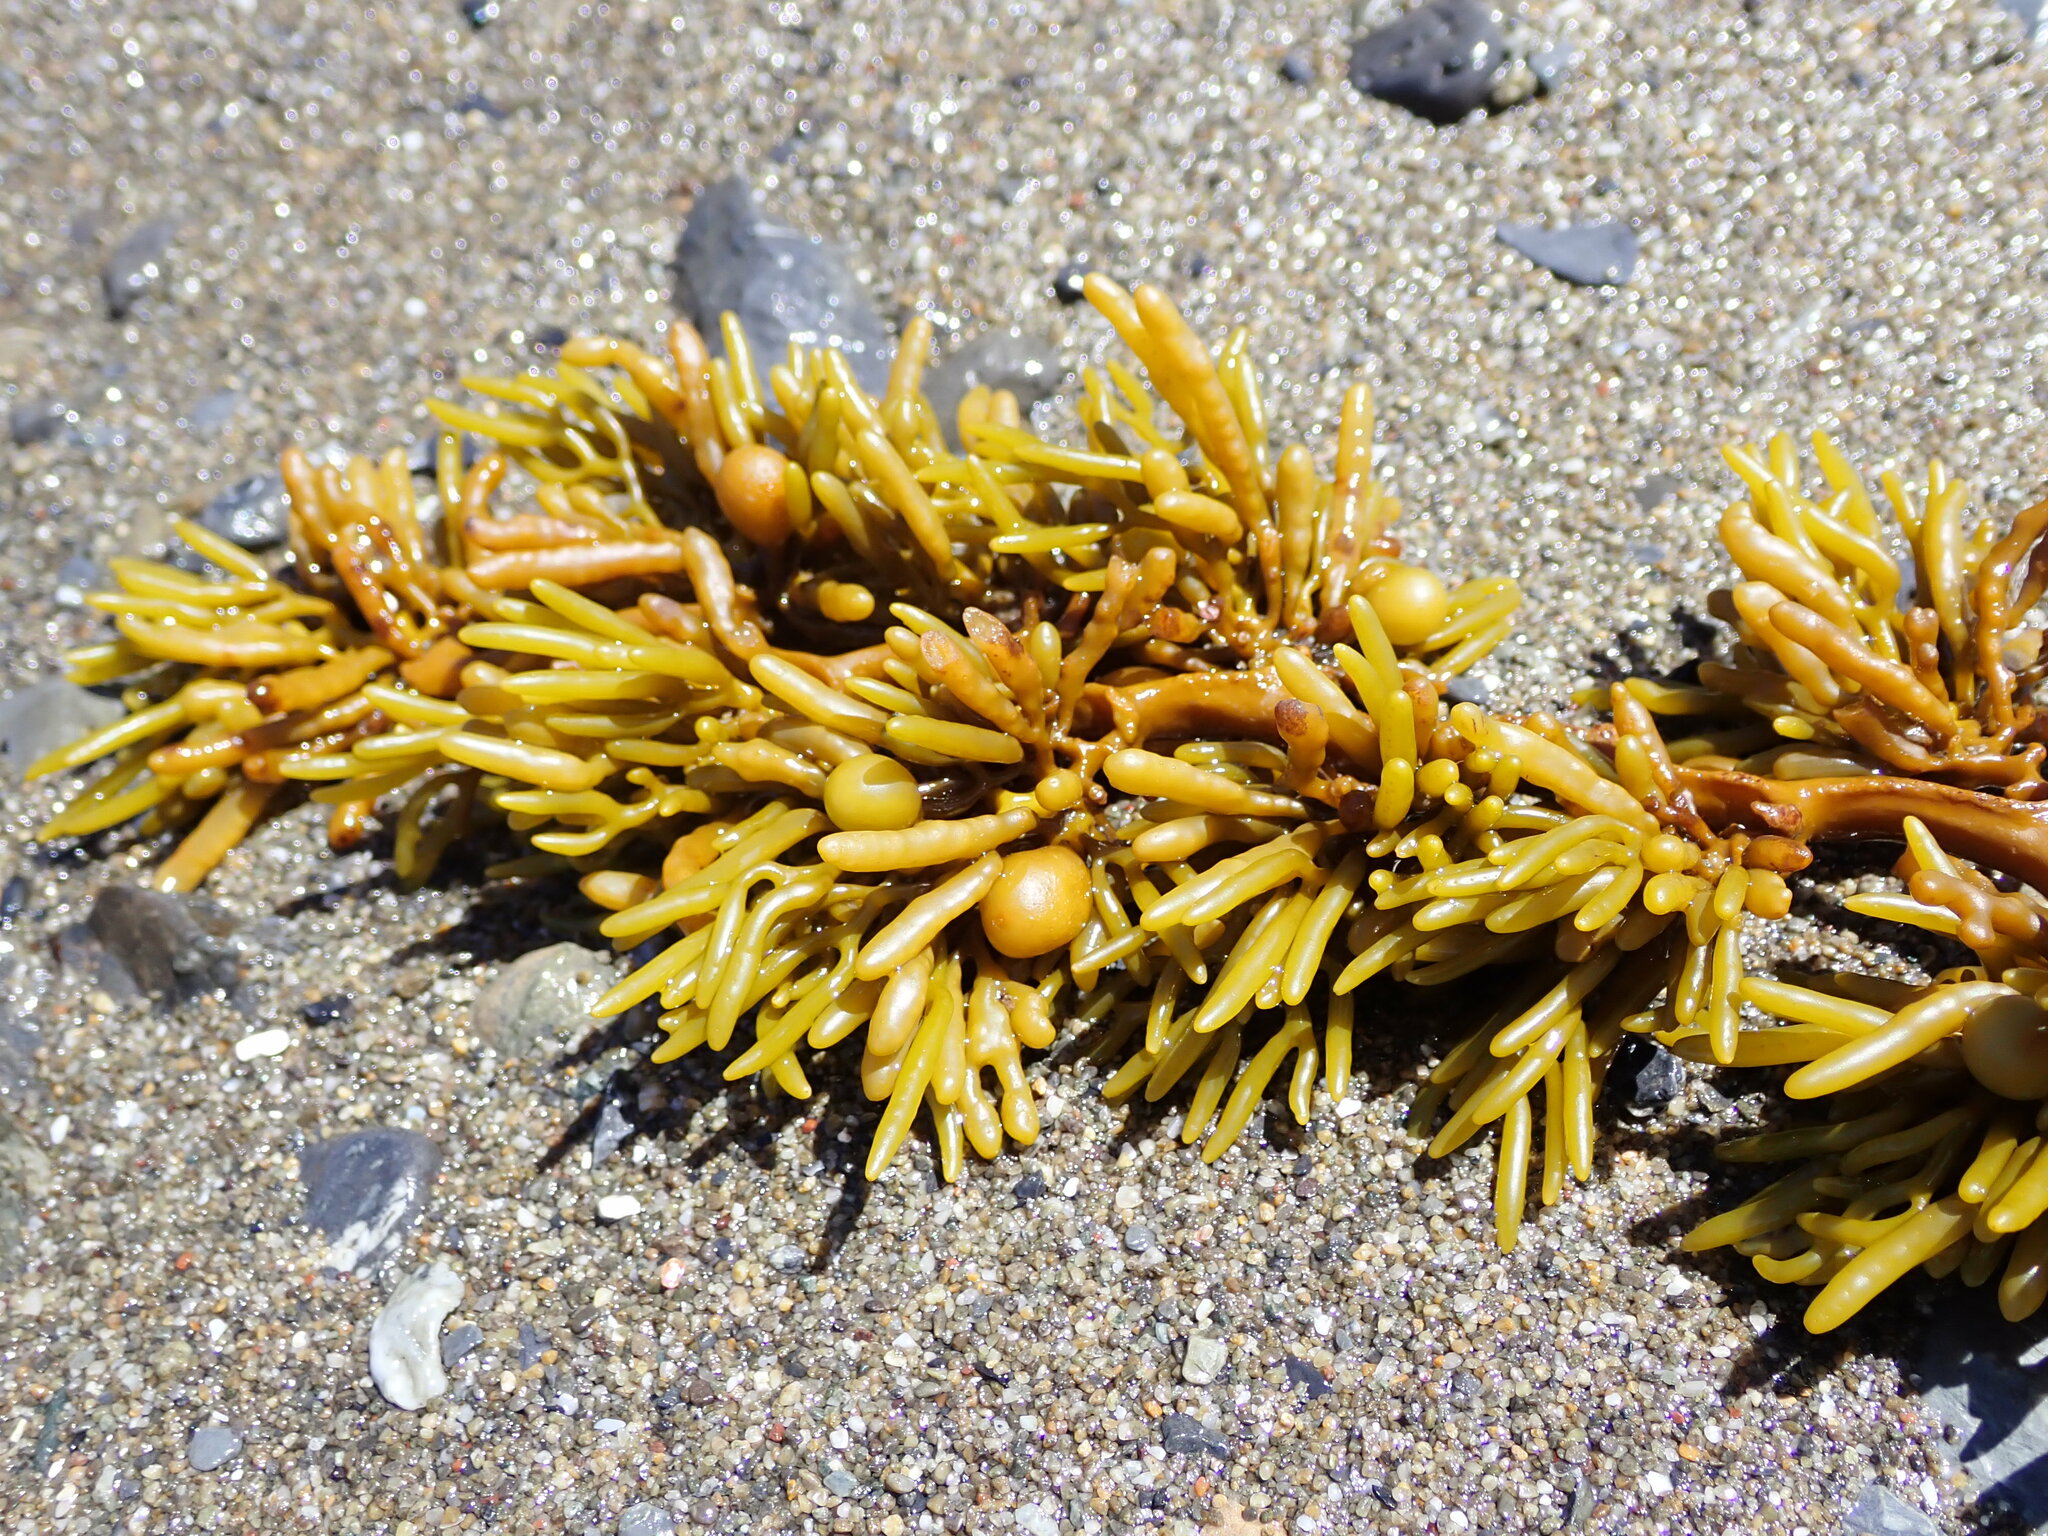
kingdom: Chromista
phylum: Ochrophyta
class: Phaeophyceae
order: Fucales
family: Sargassaceae
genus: Cystophora
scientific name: Cystophora torulosa
